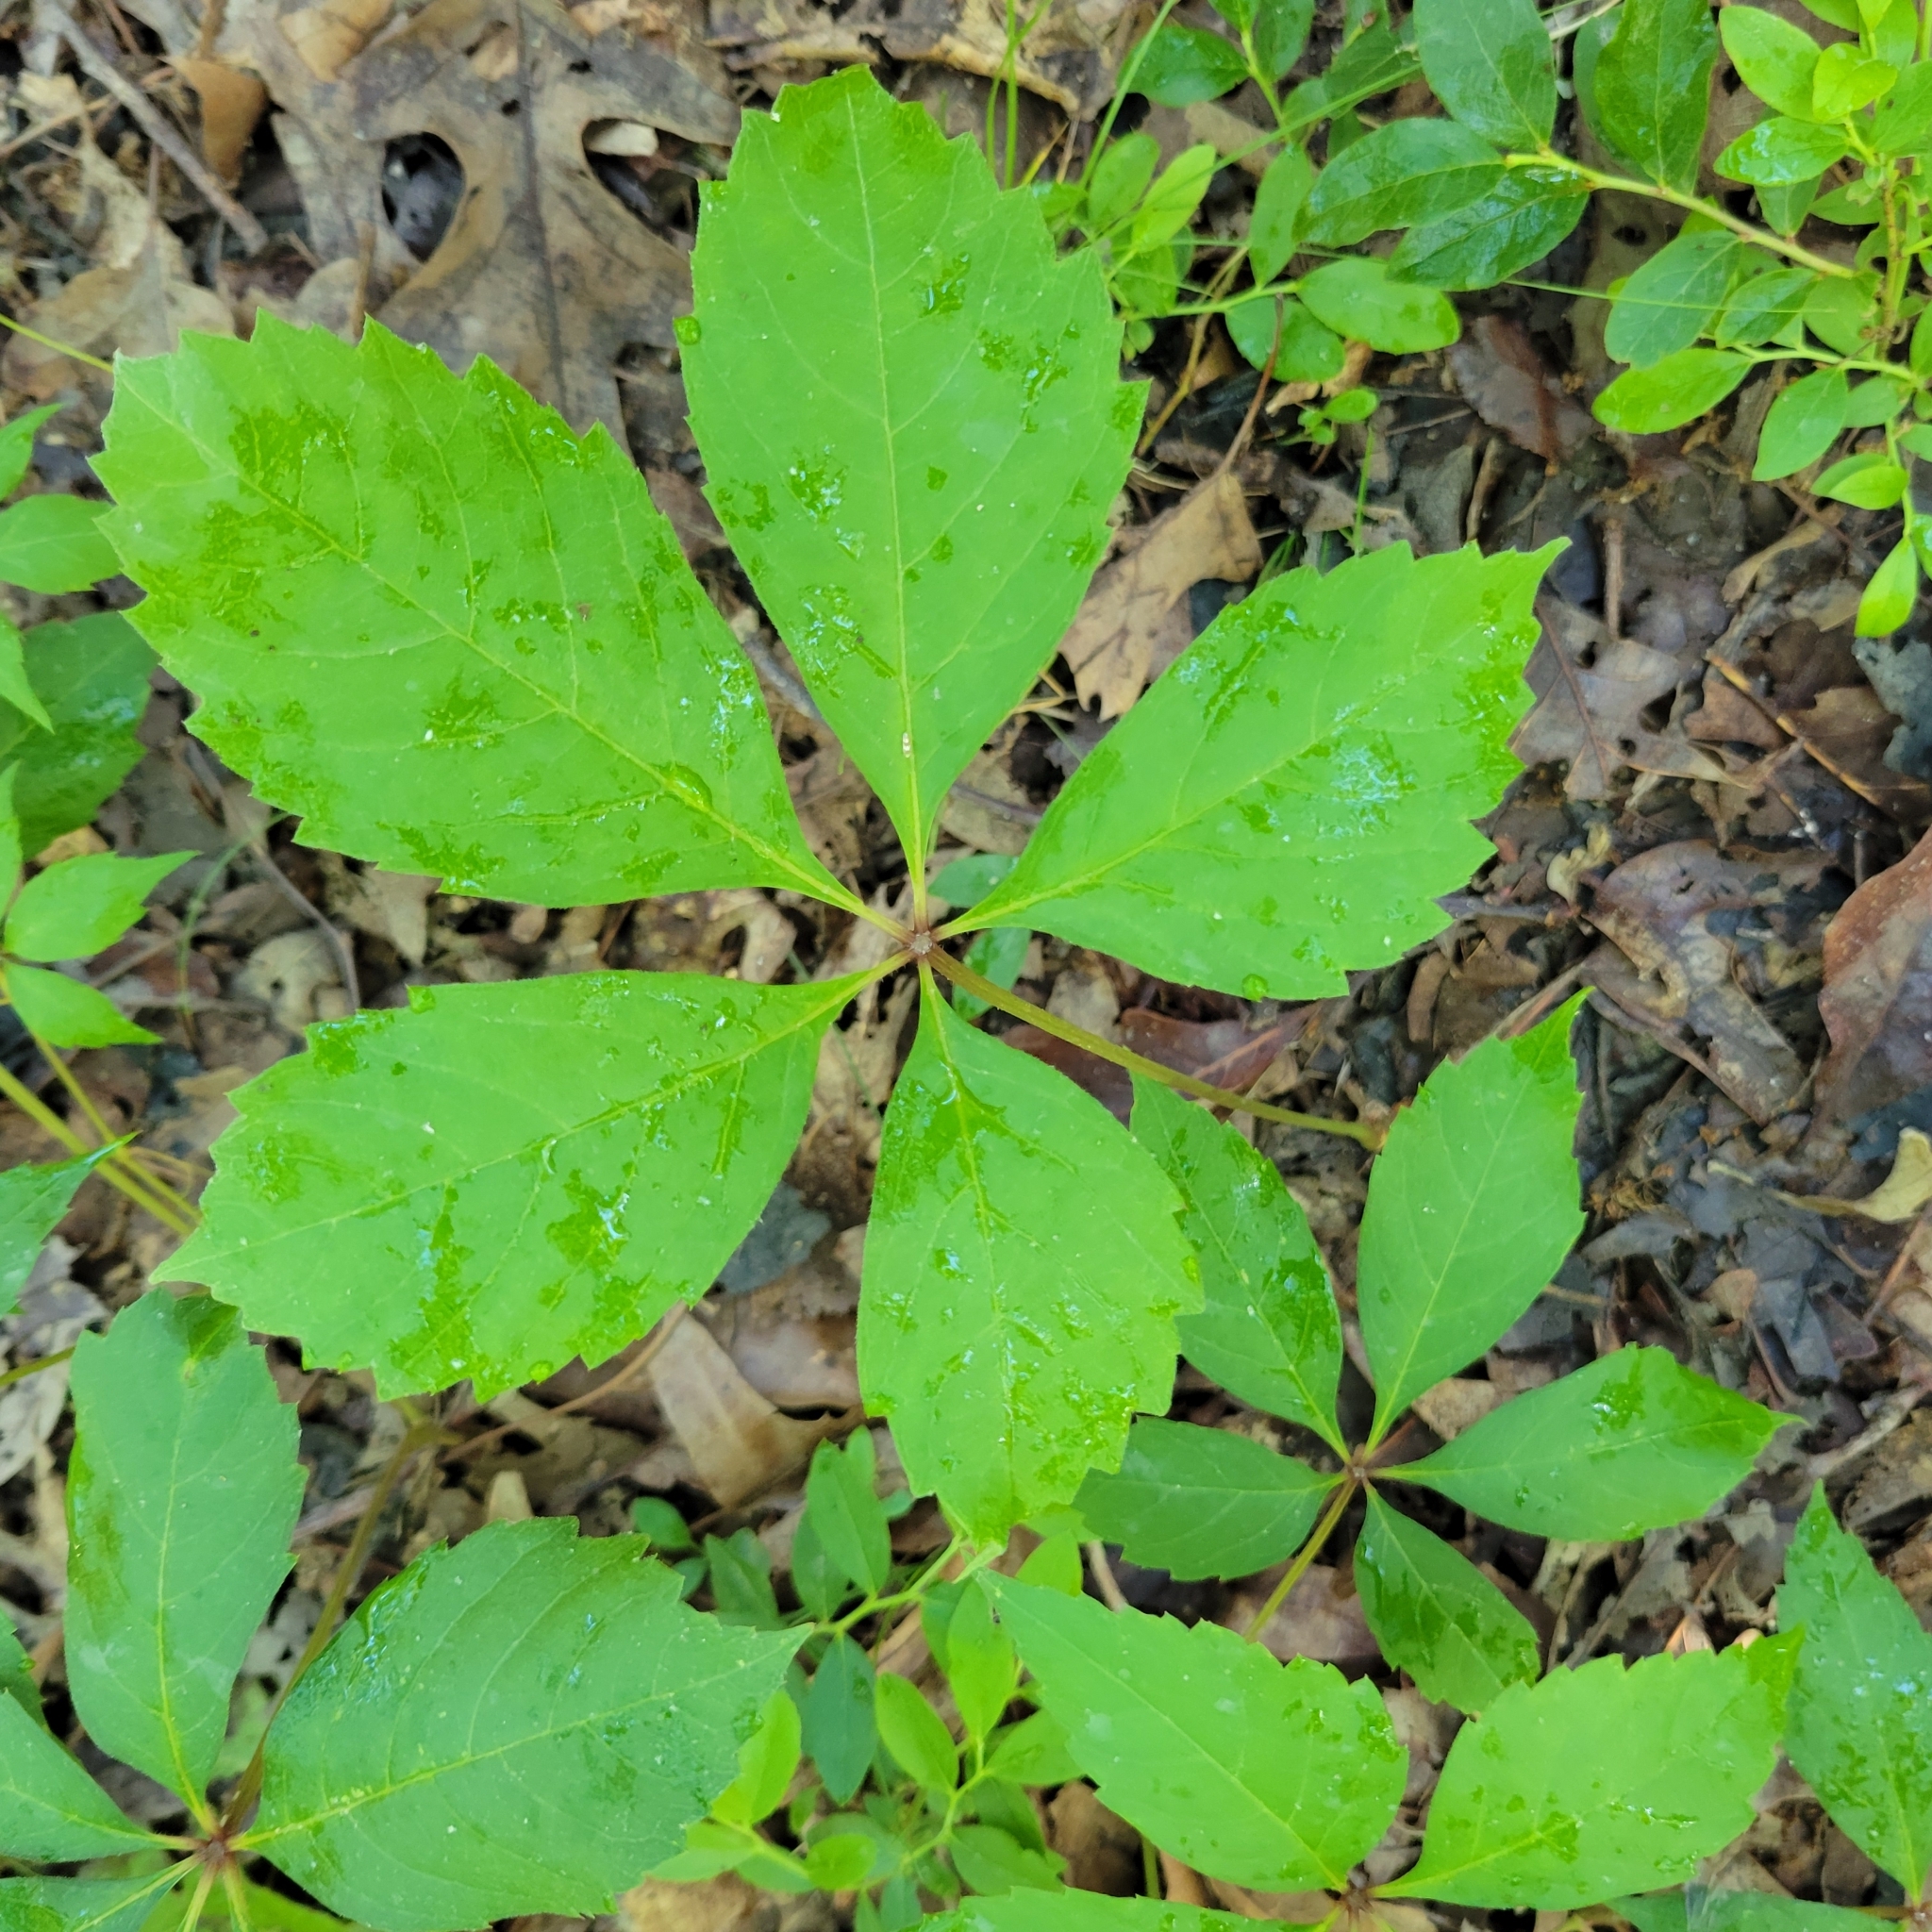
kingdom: Plantae
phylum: Tracheophyta
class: Magnoliopsida
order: Vitales
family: Vitaceae
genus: Parthenocissus
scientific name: Parthenocissus quinquefolia
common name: Virginia-creeper
